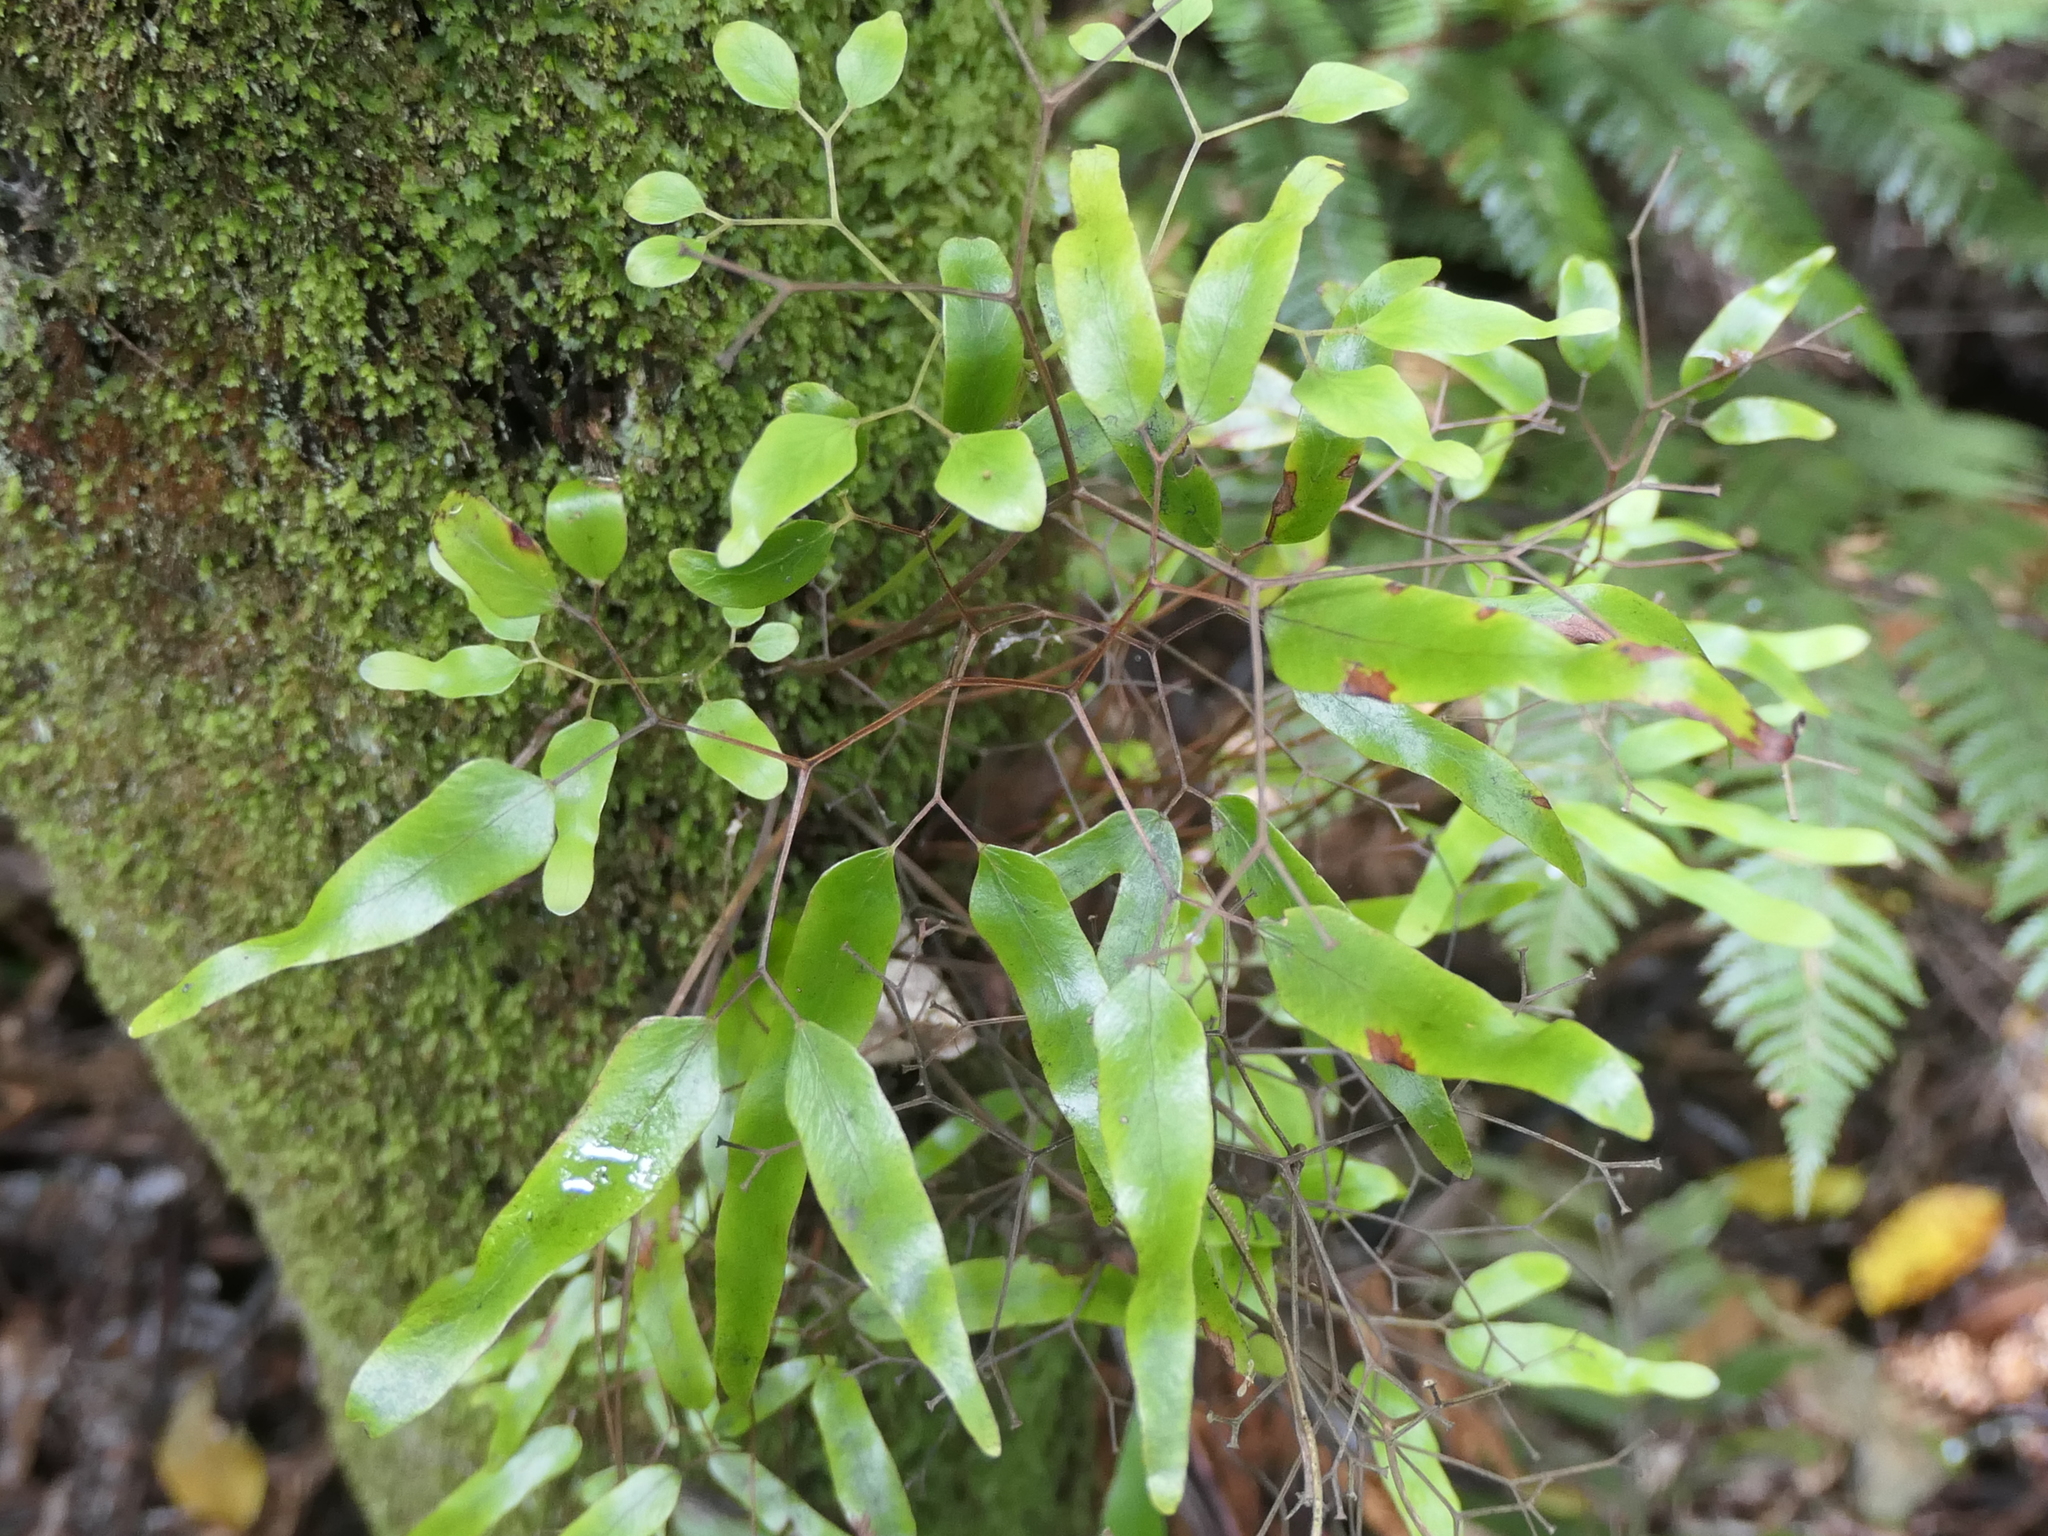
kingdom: Plantae
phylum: Tracheophyta
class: Polypodiopsida
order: Schizaeales
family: Lygodiaceae
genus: Lygodium
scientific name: Lygodium articulatum
